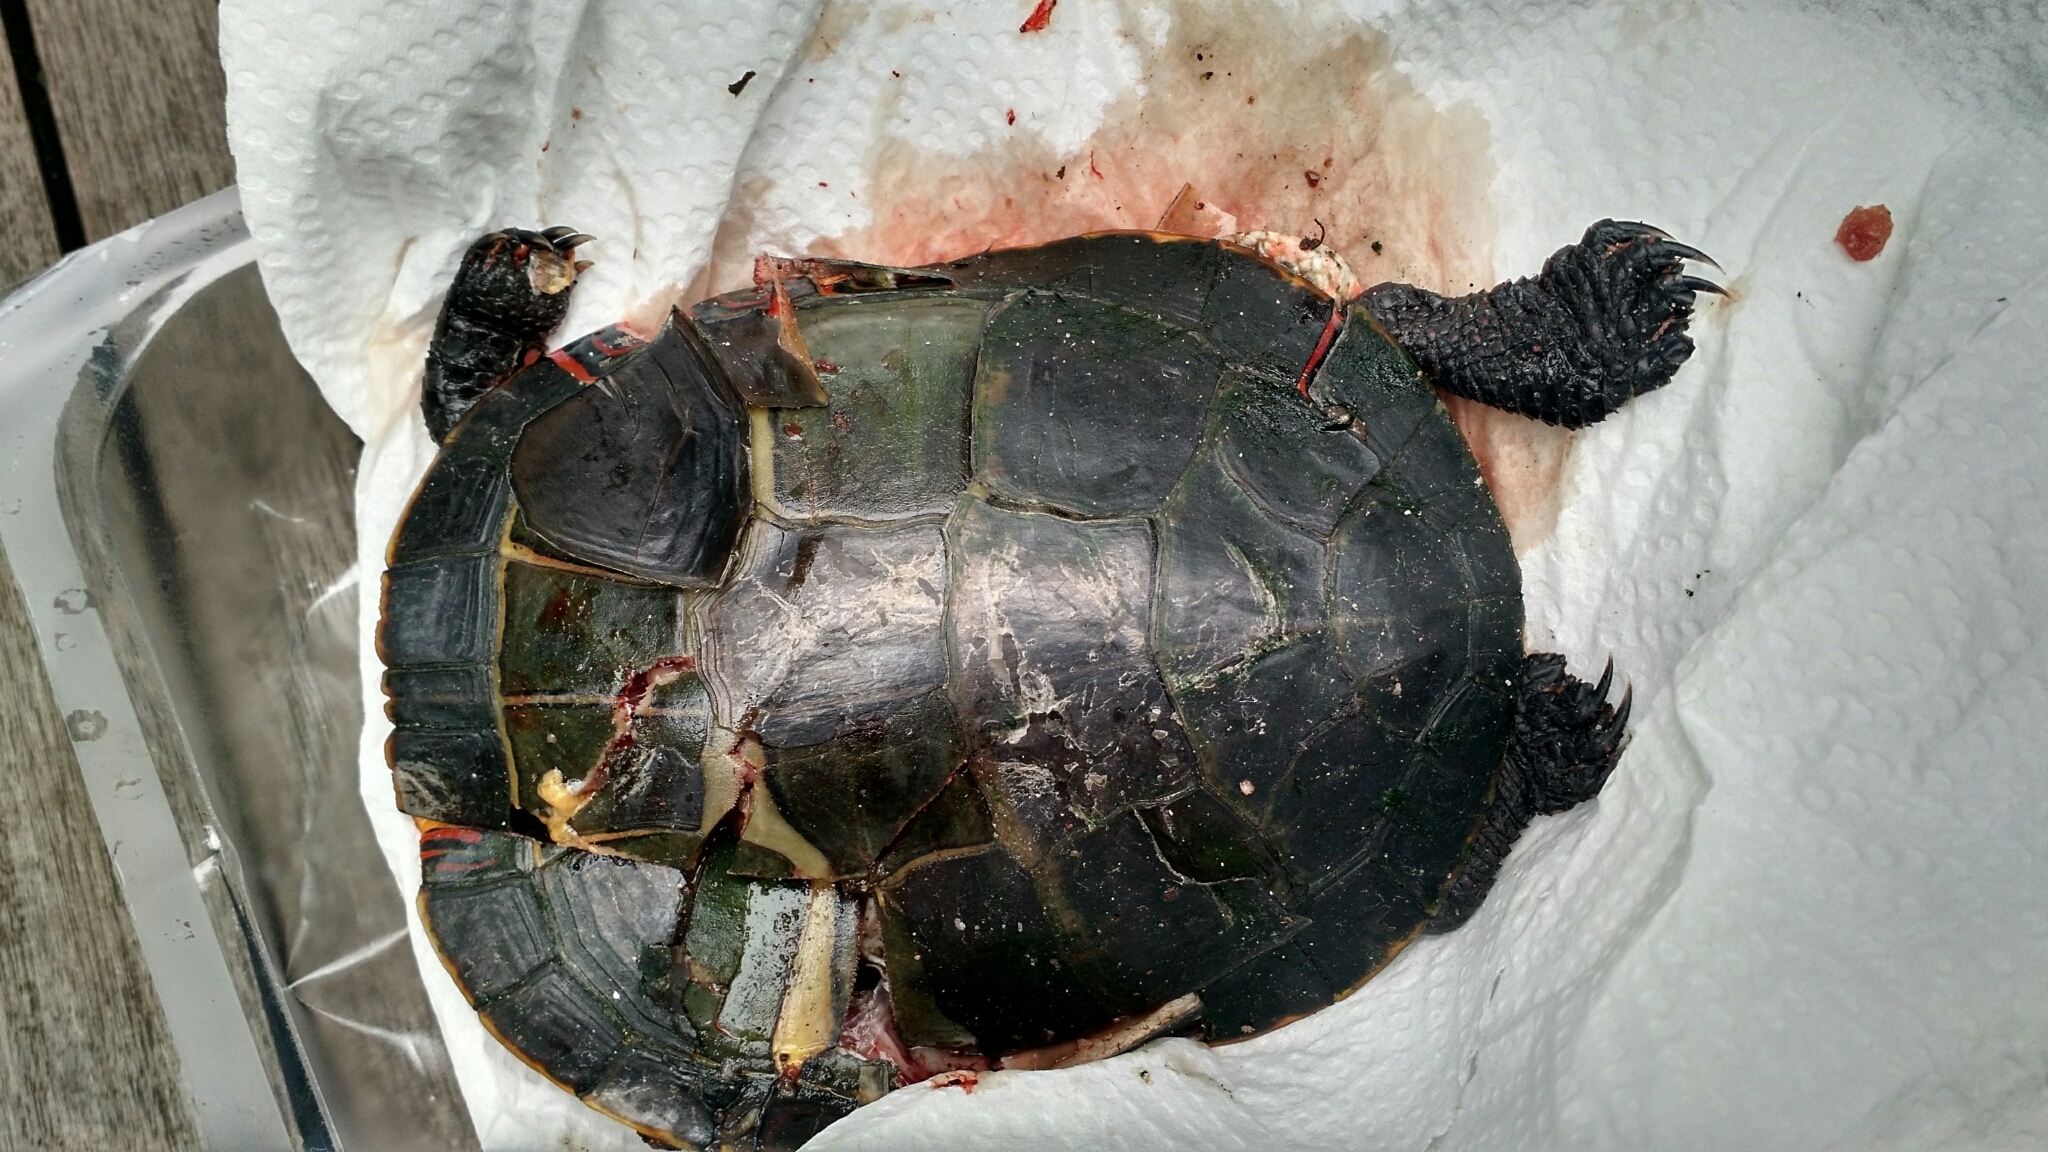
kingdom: Animalia
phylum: Chordata
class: Testudines
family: Emydidae
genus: Chrysemys
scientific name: Chrysemys picta
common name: Painted turtle
